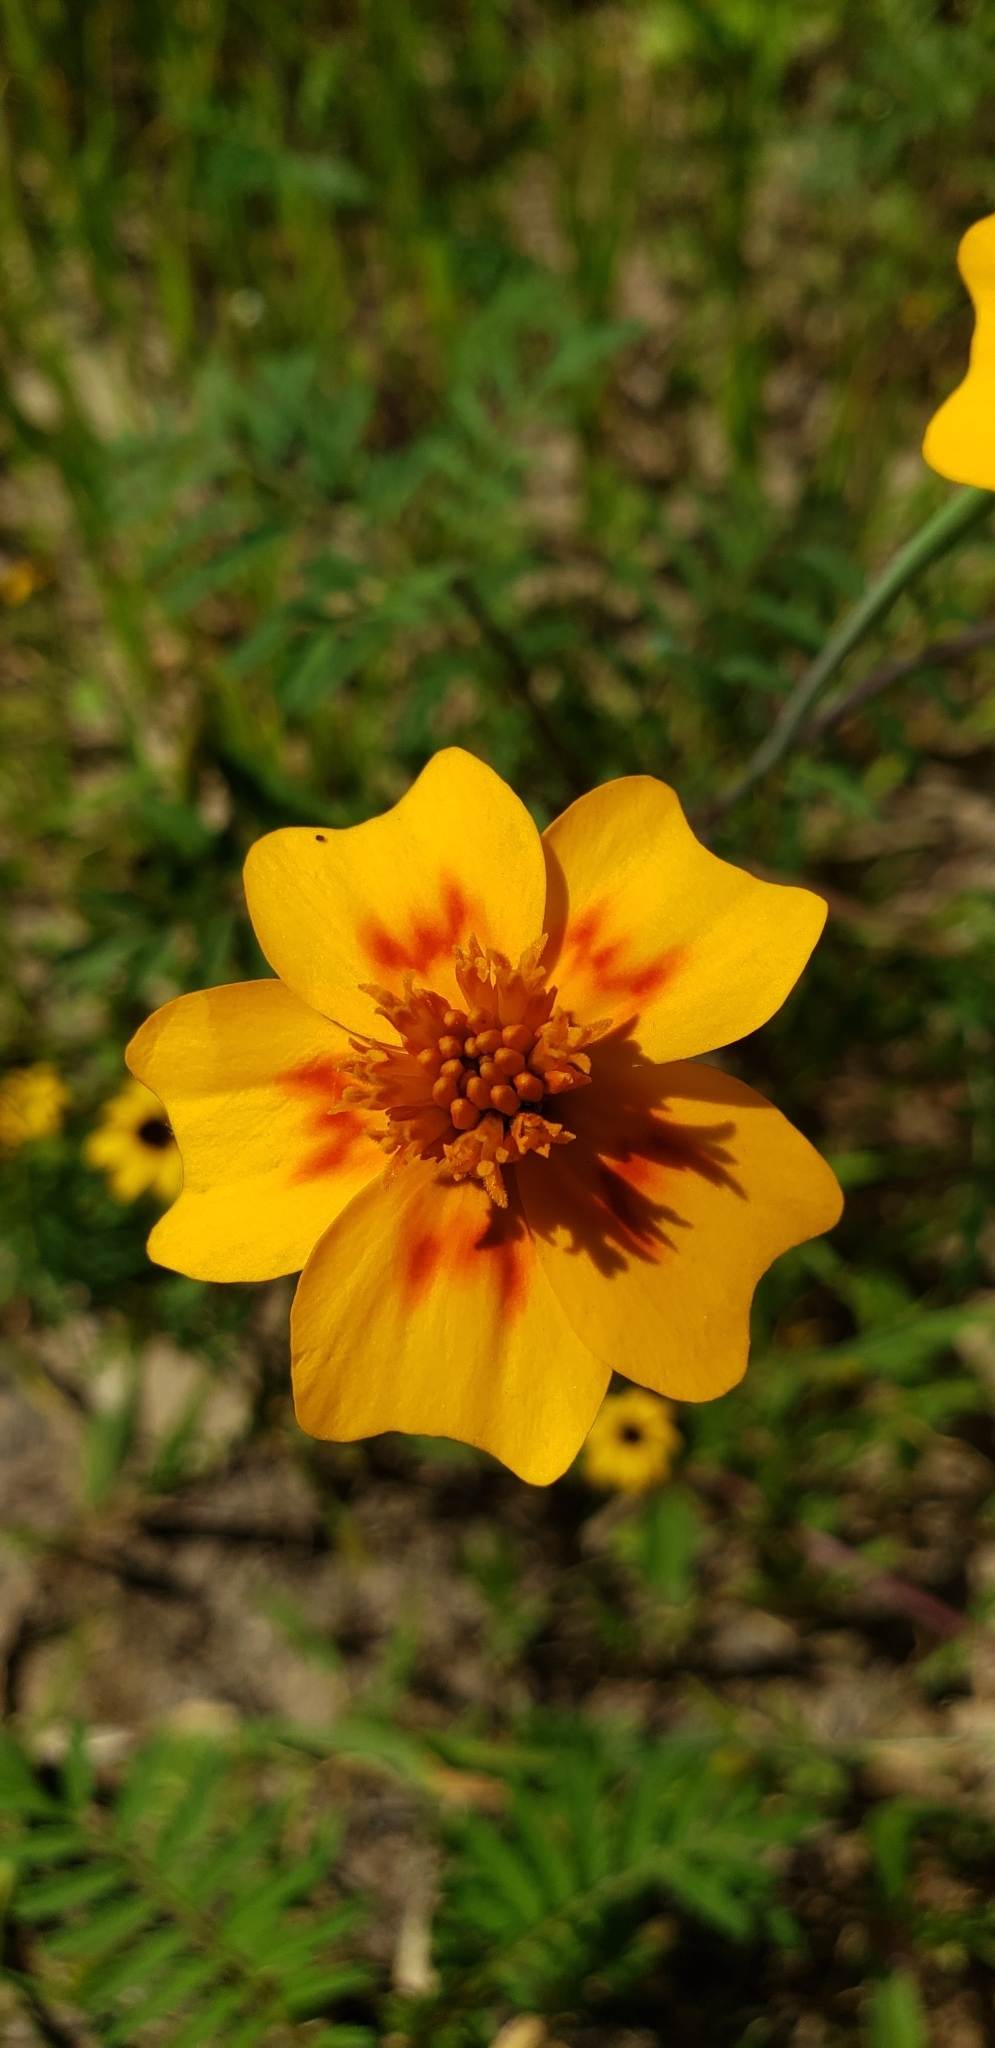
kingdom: Plantae
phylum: Tracheophyta
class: Magnoliopsida
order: Asterales
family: Asteraceae
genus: Tagetes
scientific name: Tagetes lunulata
